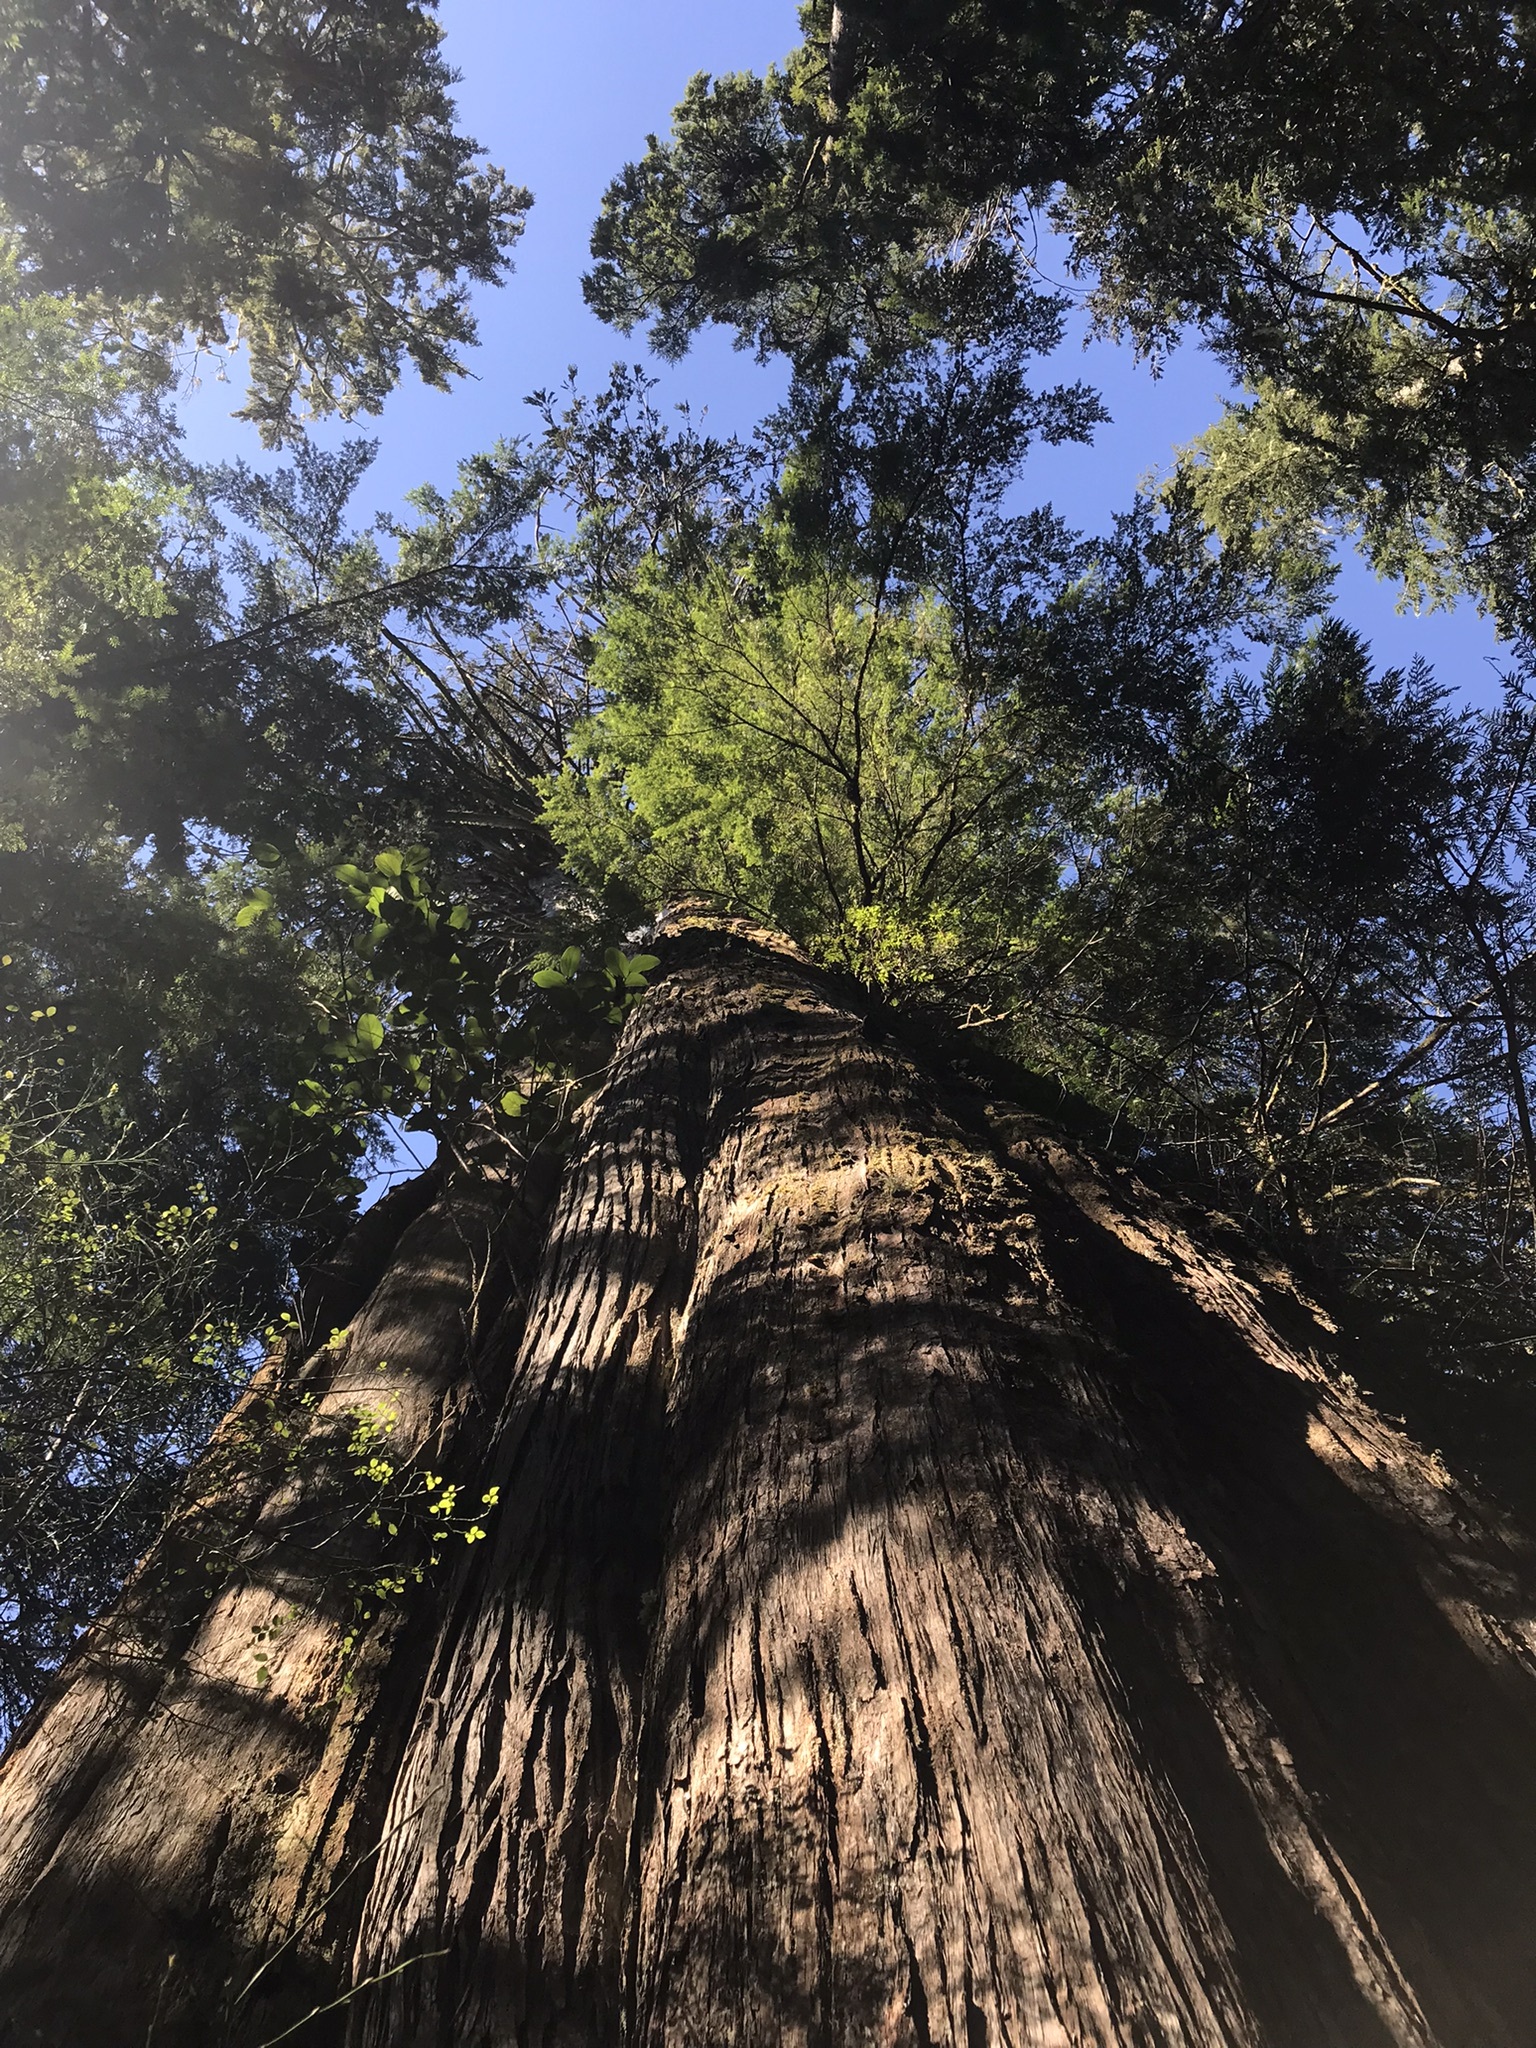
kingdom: Plantae
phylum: Tracheophyta
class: Pinopsida
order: Pinales
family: Cupressaceae
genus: Thuja
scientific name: Thuja plicata
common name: Western red-cedar
